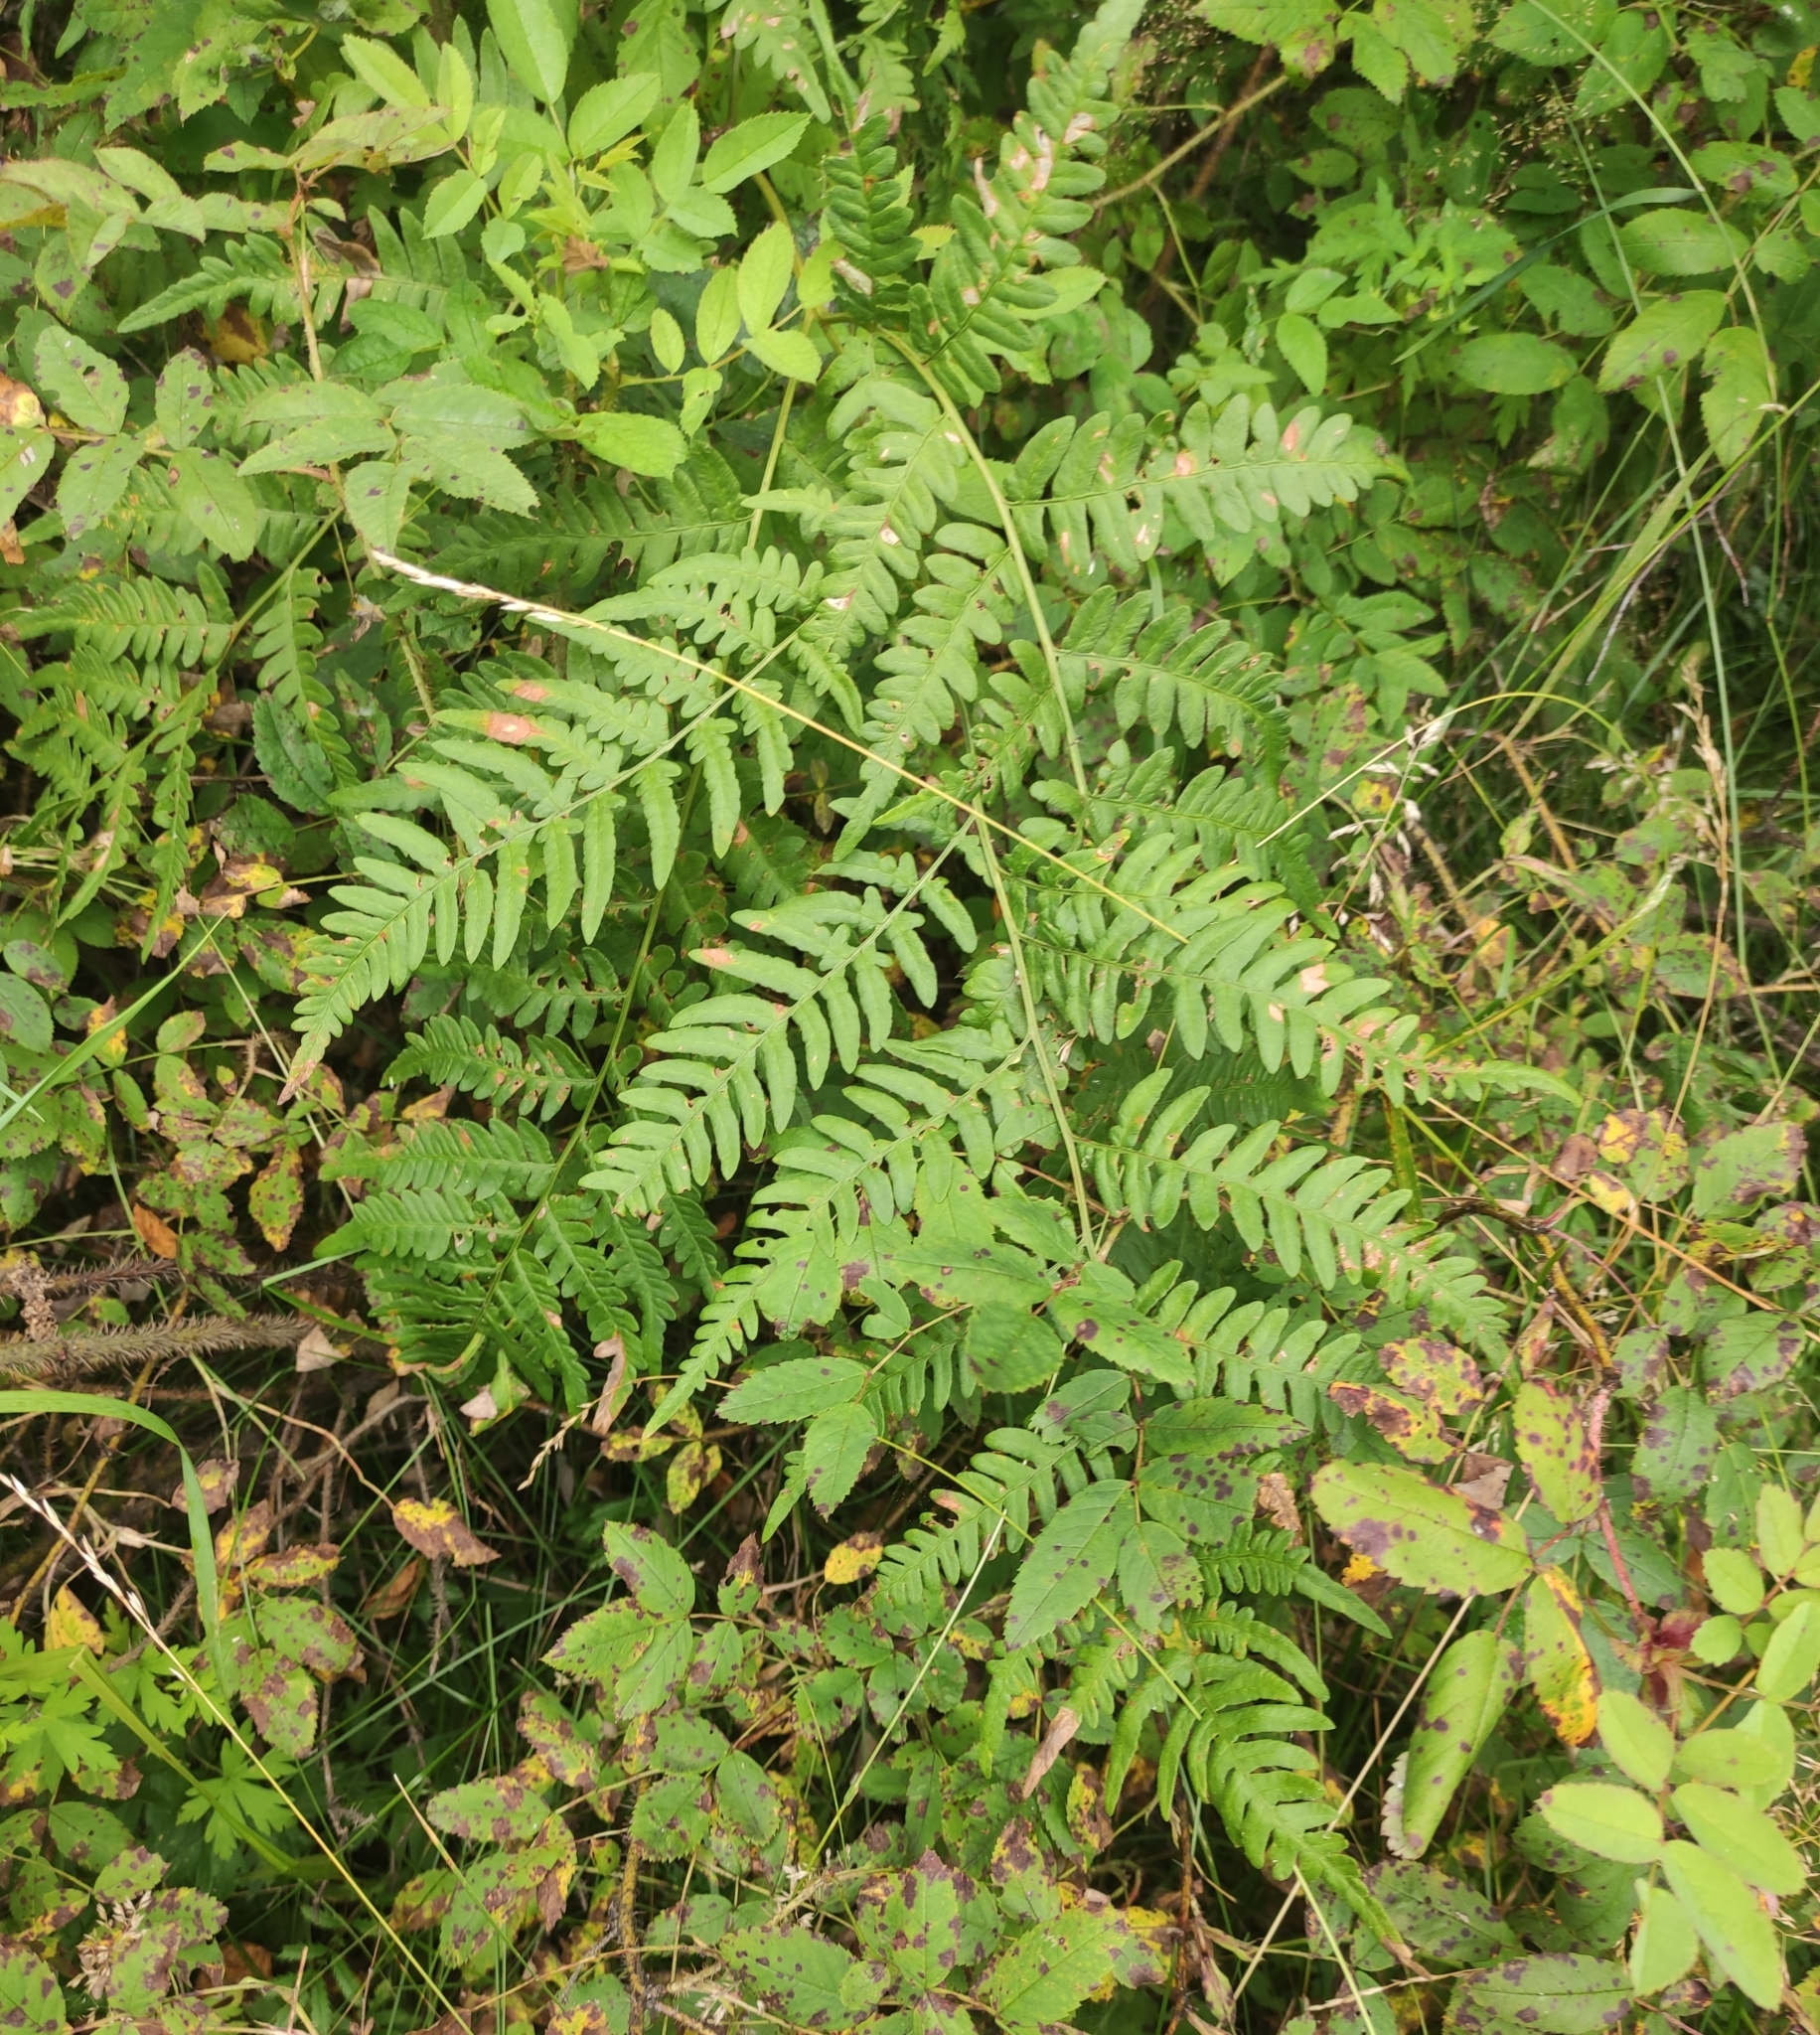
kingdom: Plantae
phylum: Tracheophyta
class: Polypodiopsida
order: Polypodiales
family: Dennstaedtiaceae
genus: Pteridium
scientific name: Pteridium aquilinum
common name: Bracken
